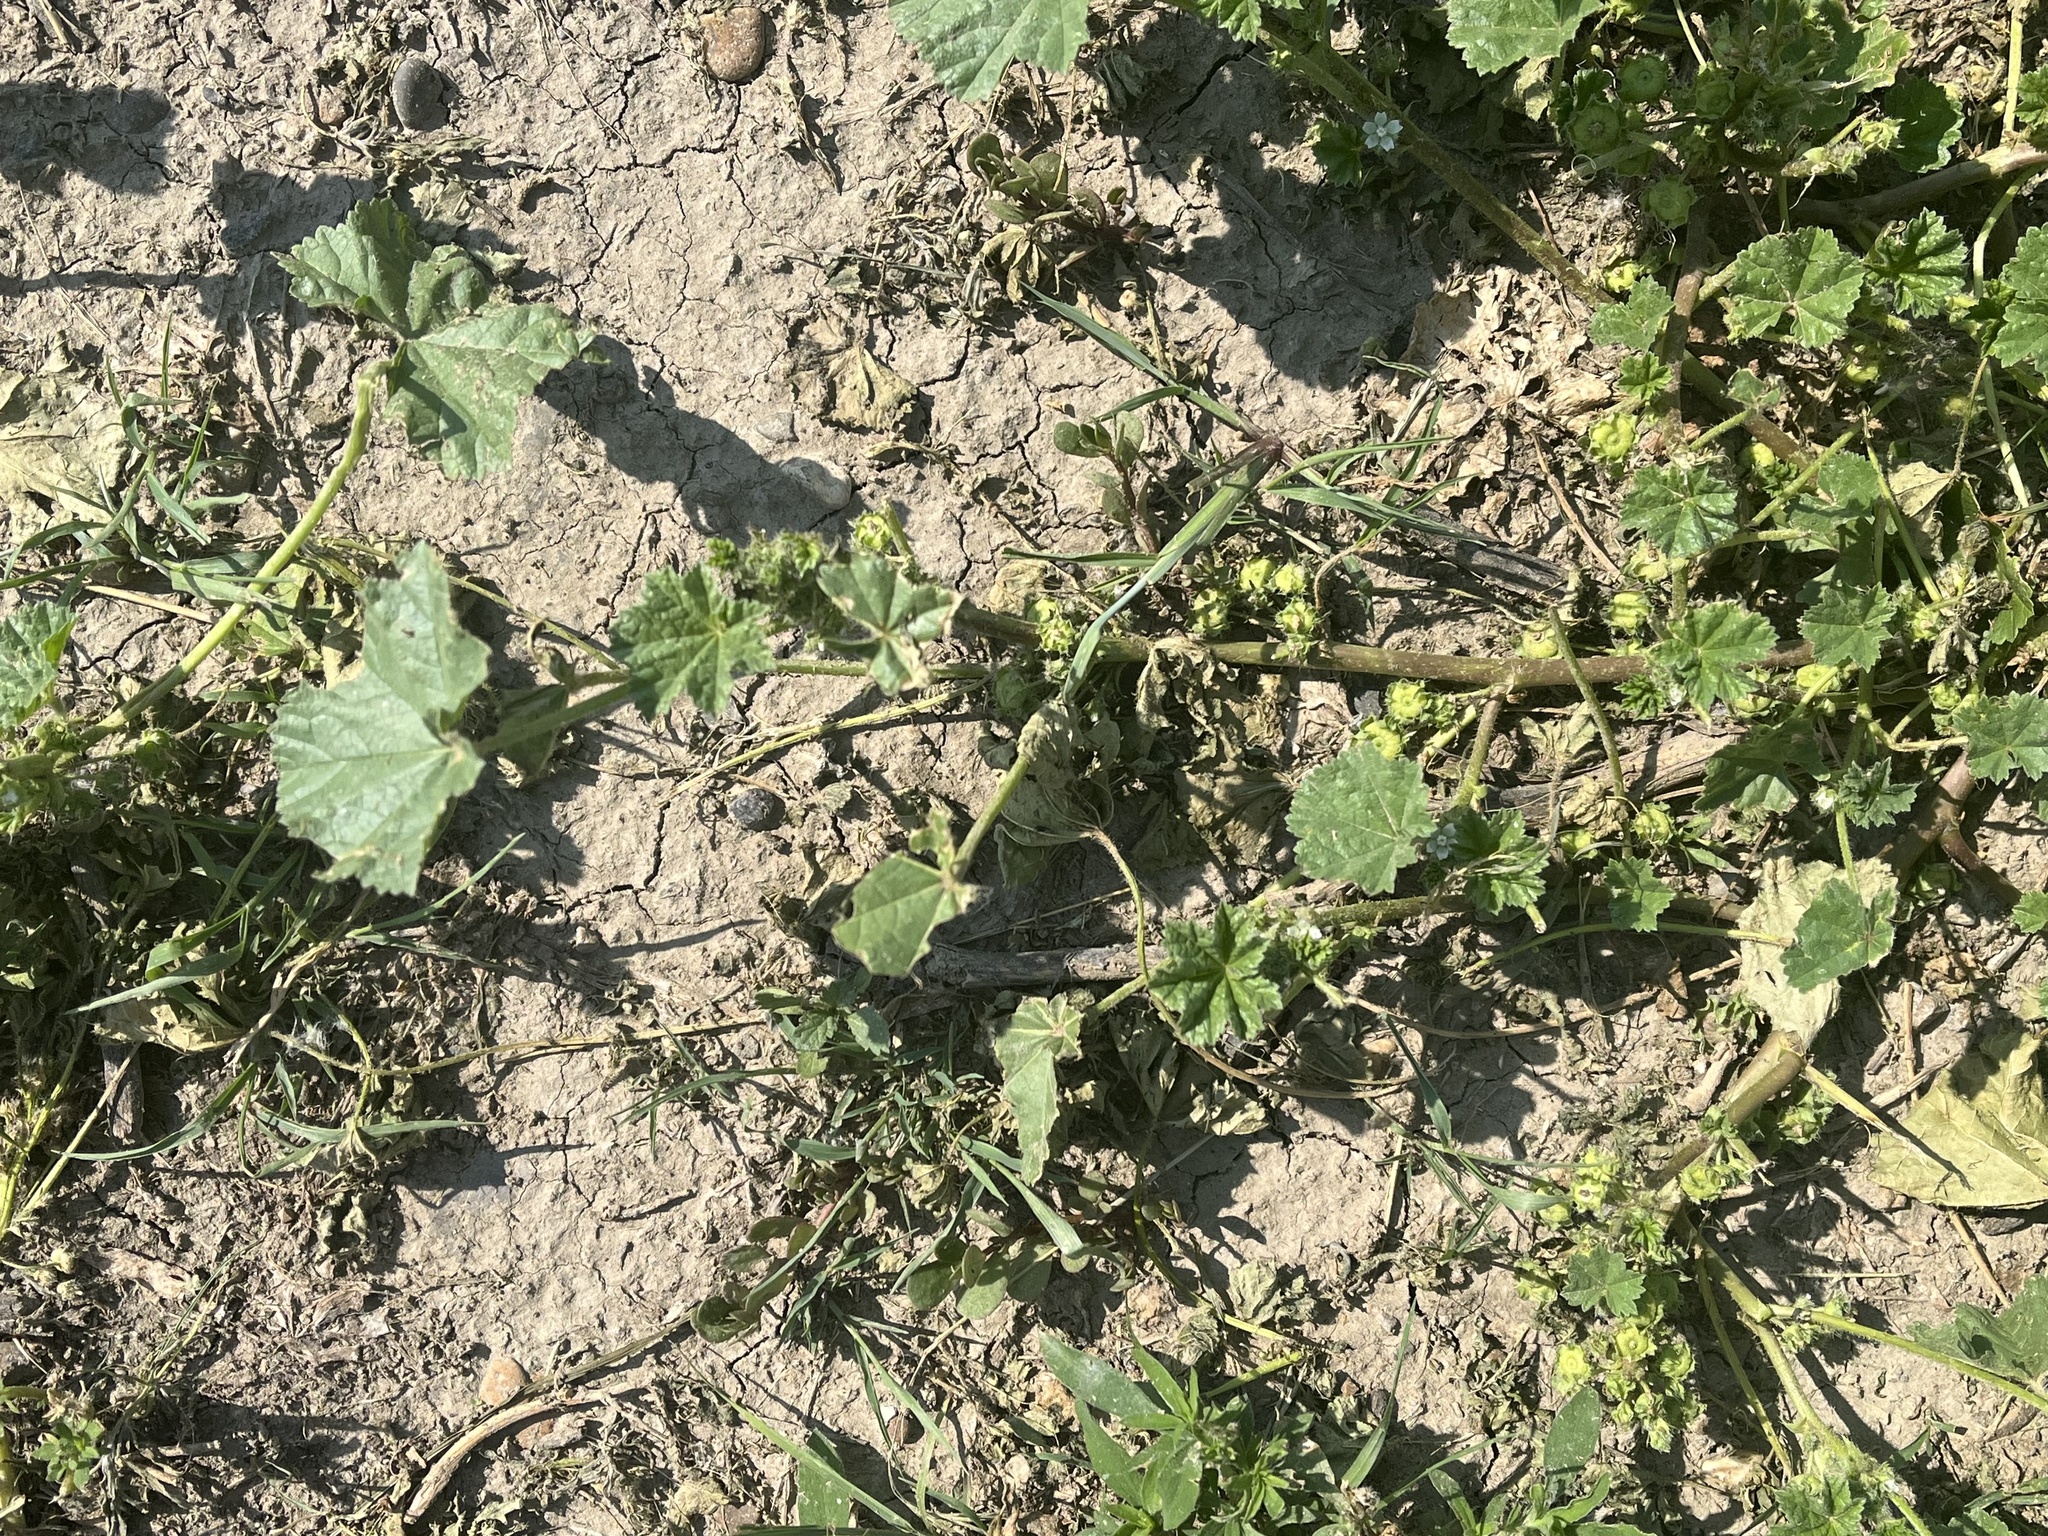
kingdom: Plantae
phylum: Tracheophyta
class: Magnoliopsida
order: Malvales
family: Malvaceae
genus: Malva
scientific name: Malva neglecta
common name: Common mallow
